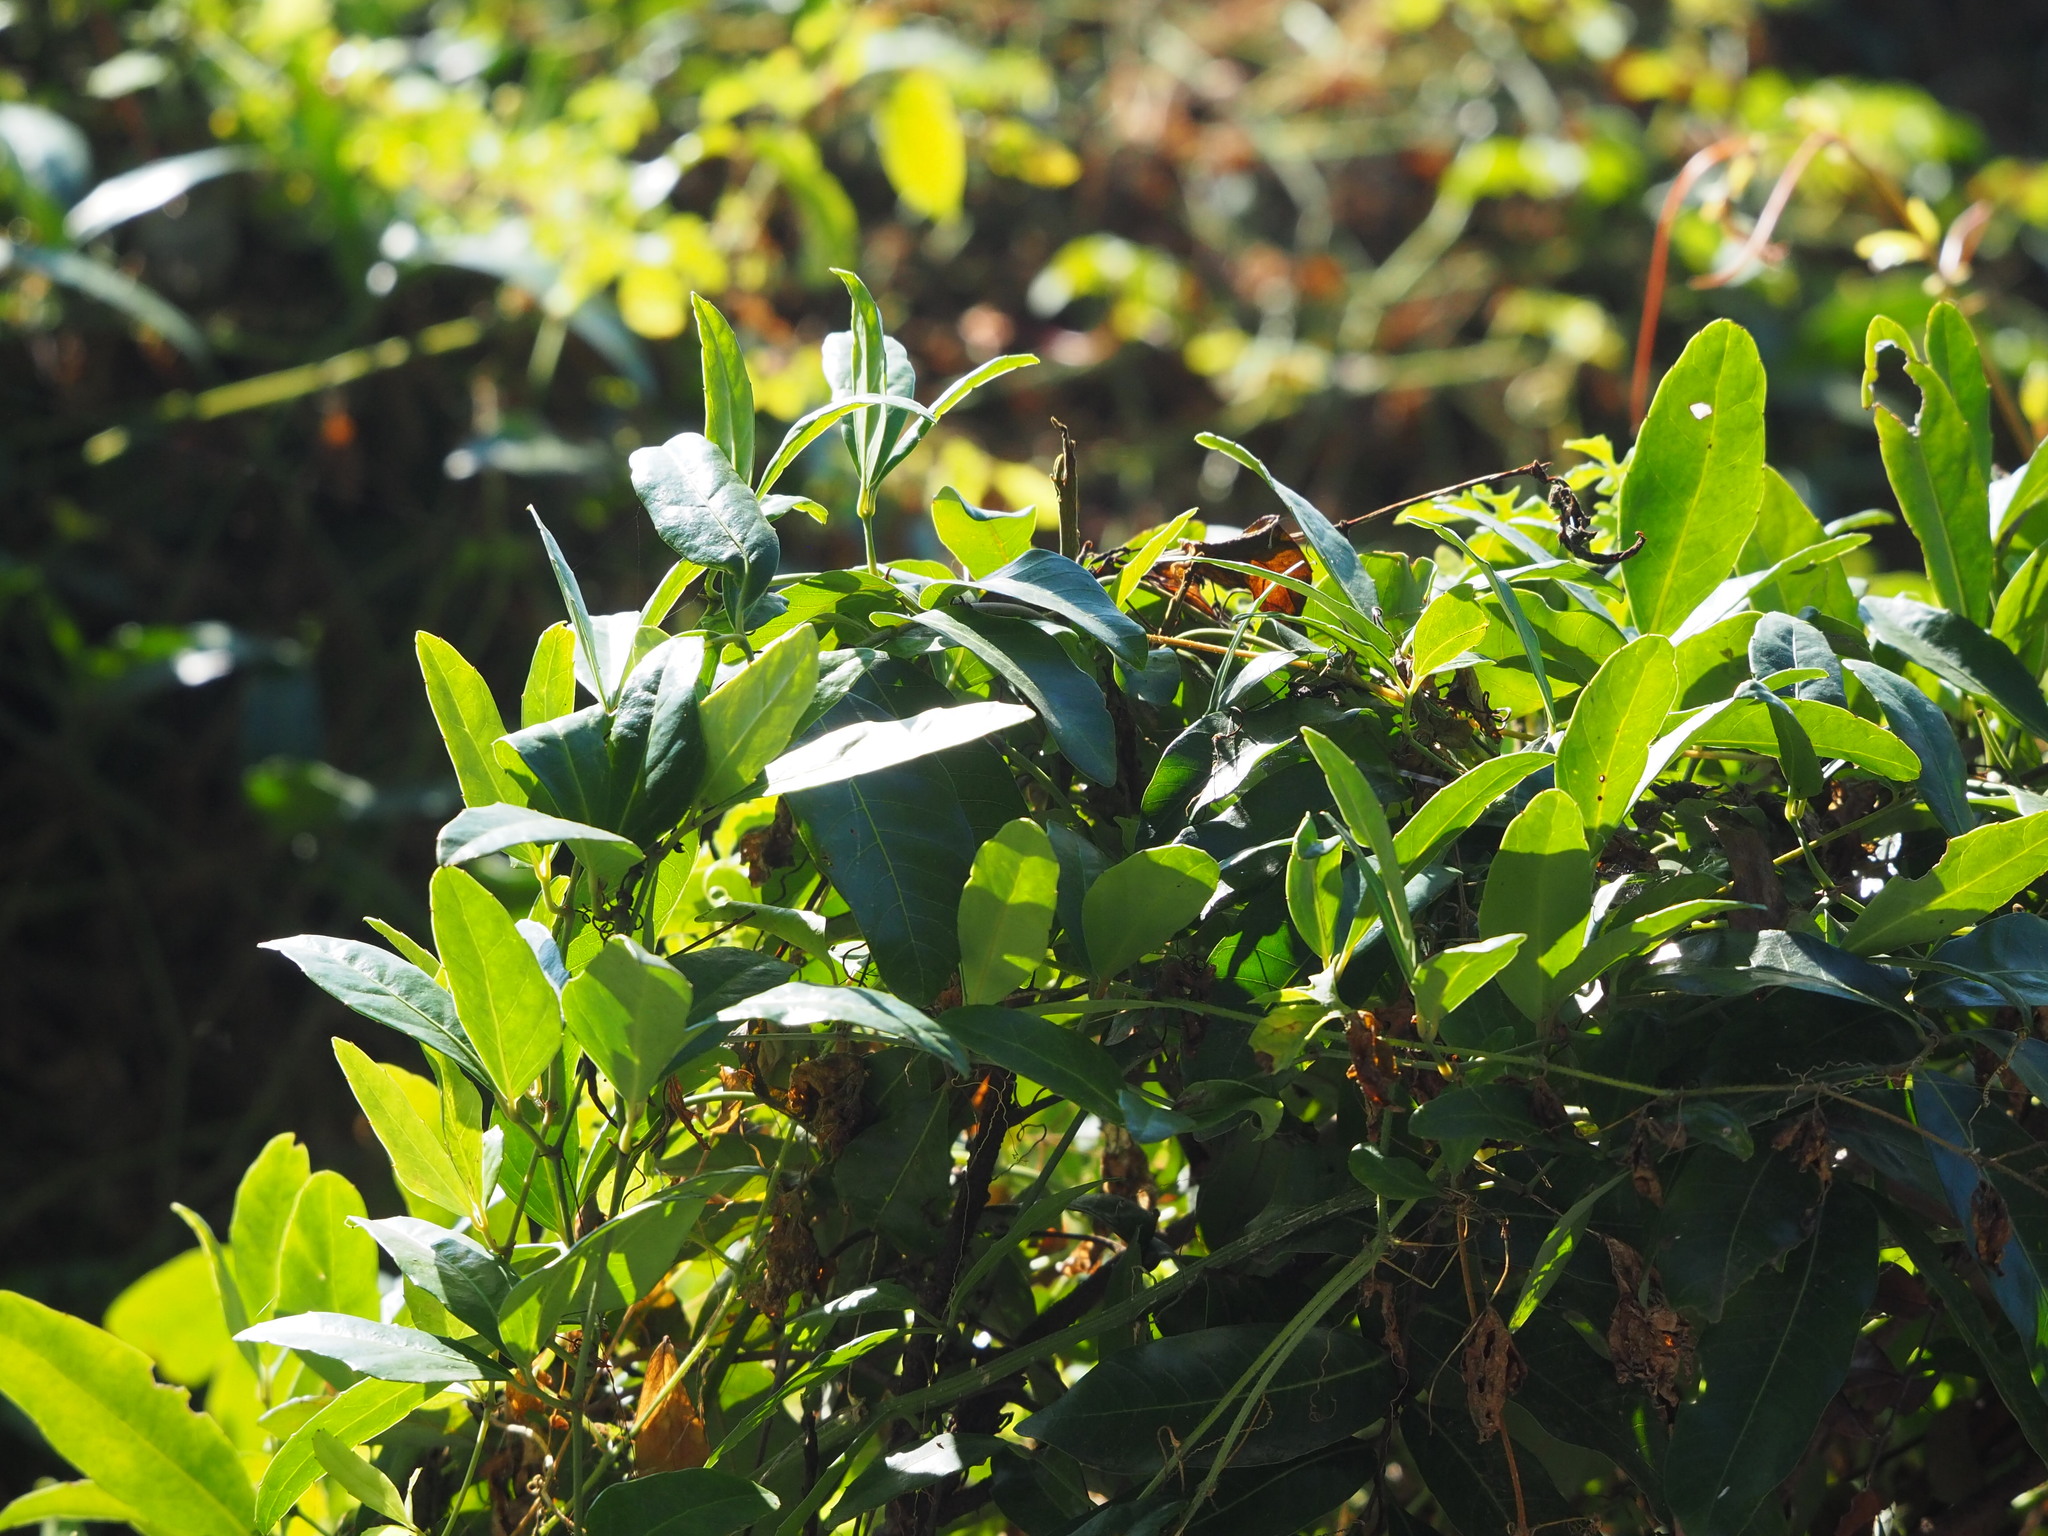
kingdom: Plantae
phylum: Tracheophyta
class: Magnoliopsida
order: Vitales
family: Vitaceae
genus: Tetrastigma
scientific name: Tetrastigma formosanum
